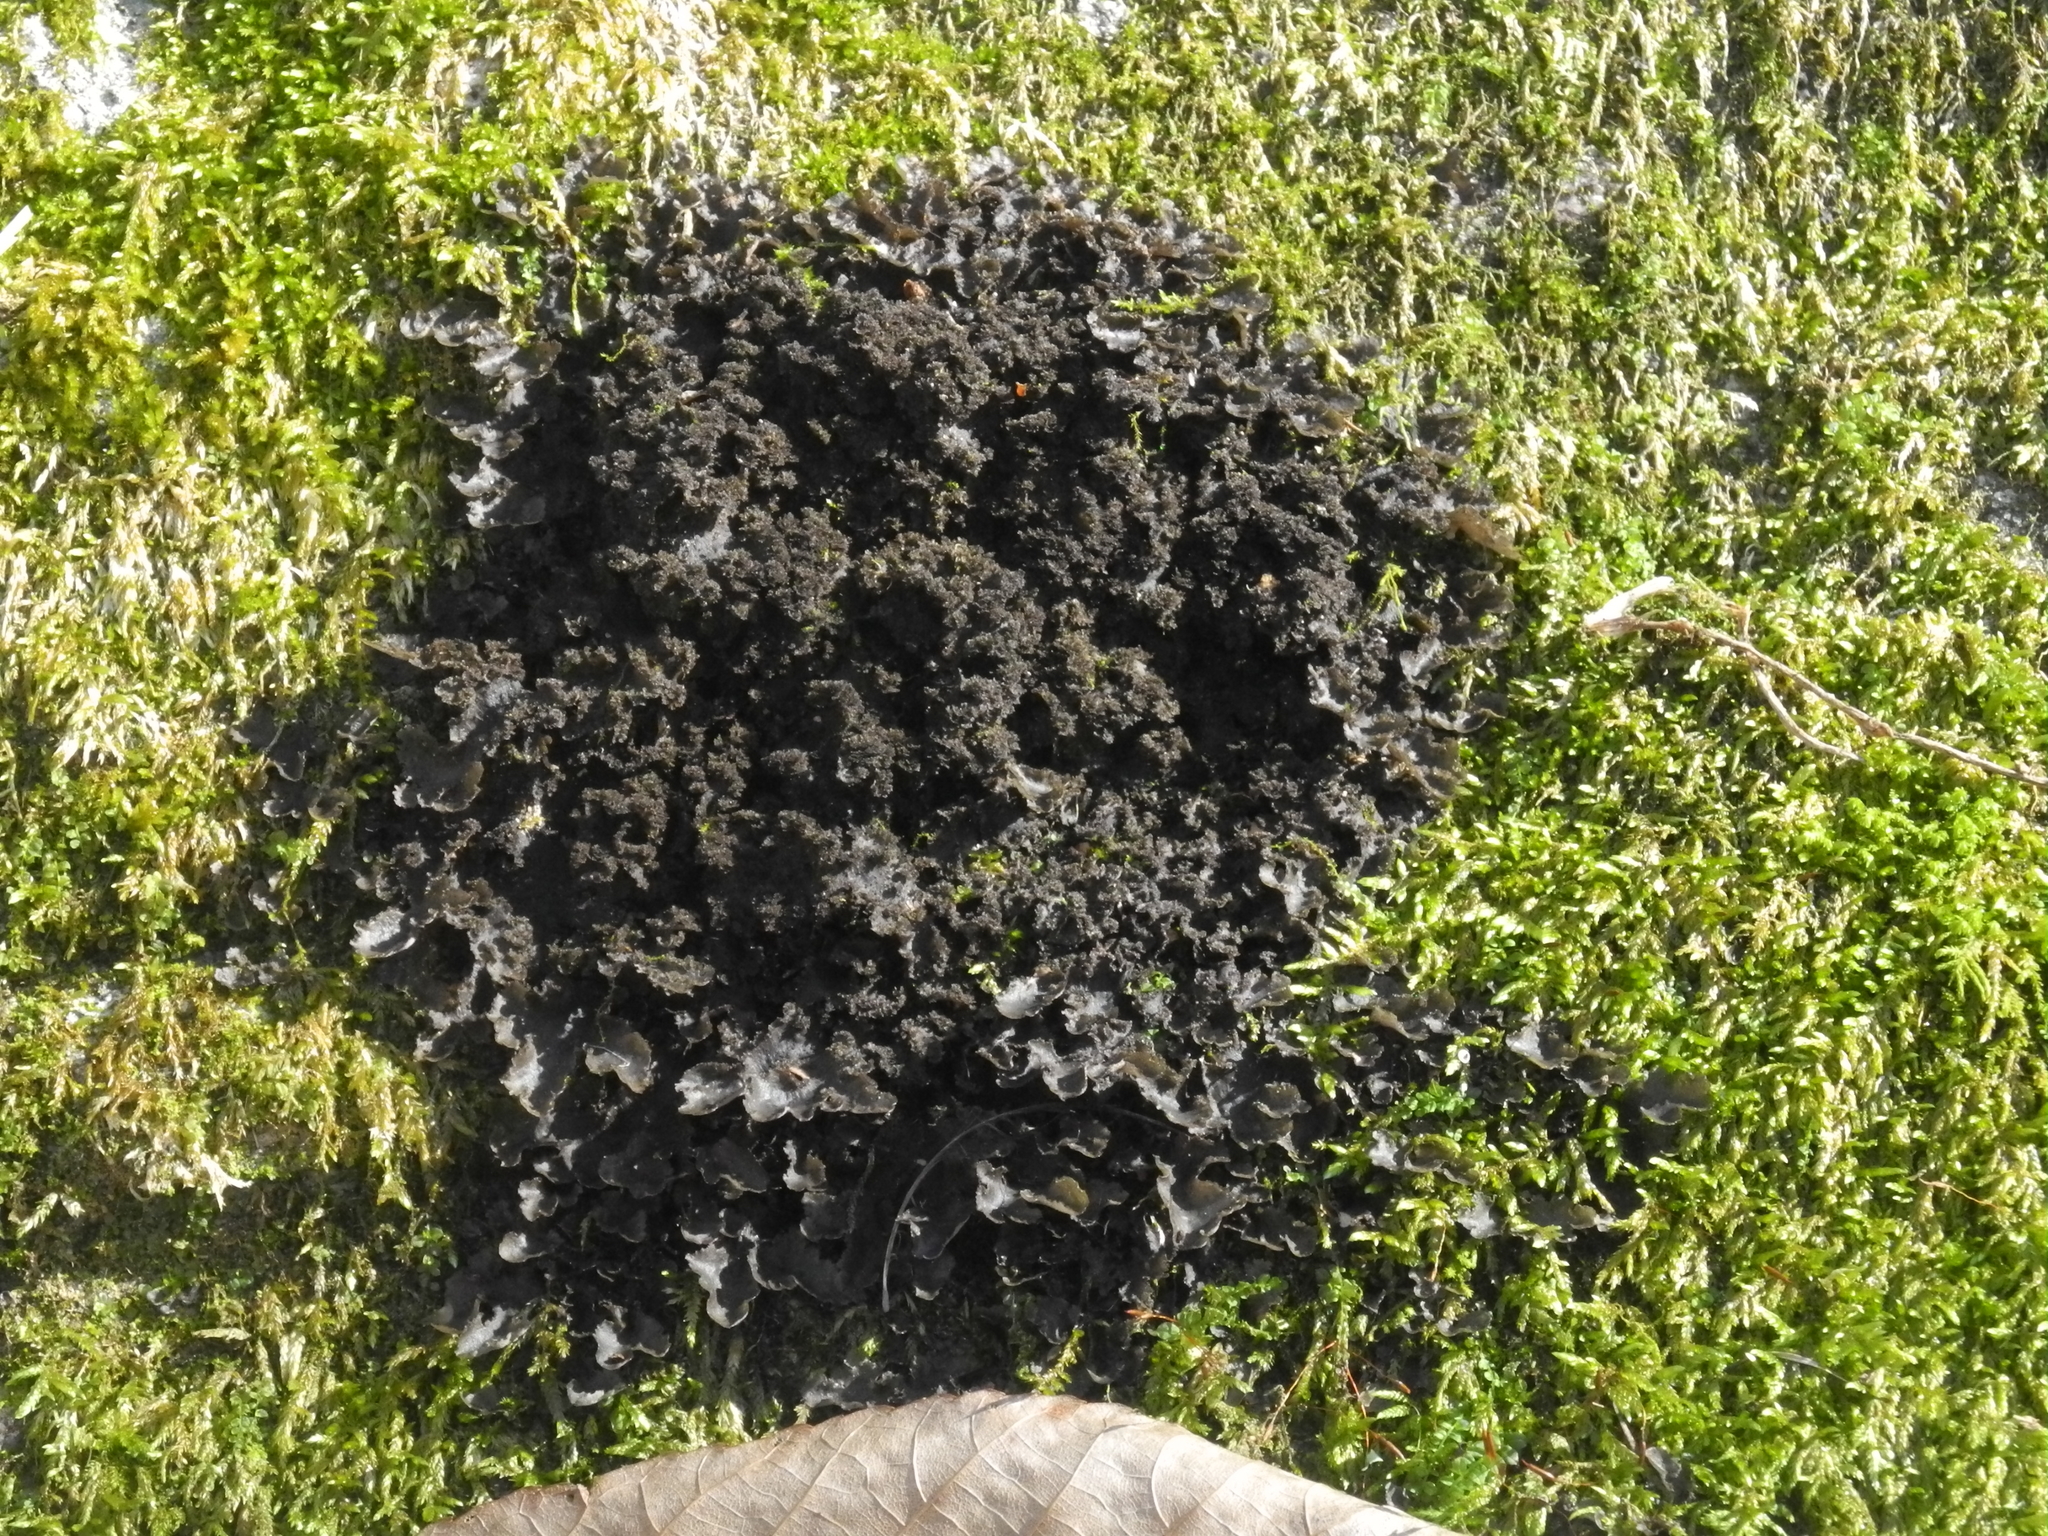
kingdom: Fungi
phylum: Ascomycota
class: Lecanoromycetes
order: Peltigerales
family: Lobariaceae
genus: Sticta
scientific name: Sticta carolinensis
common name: Carolina moon lichen
